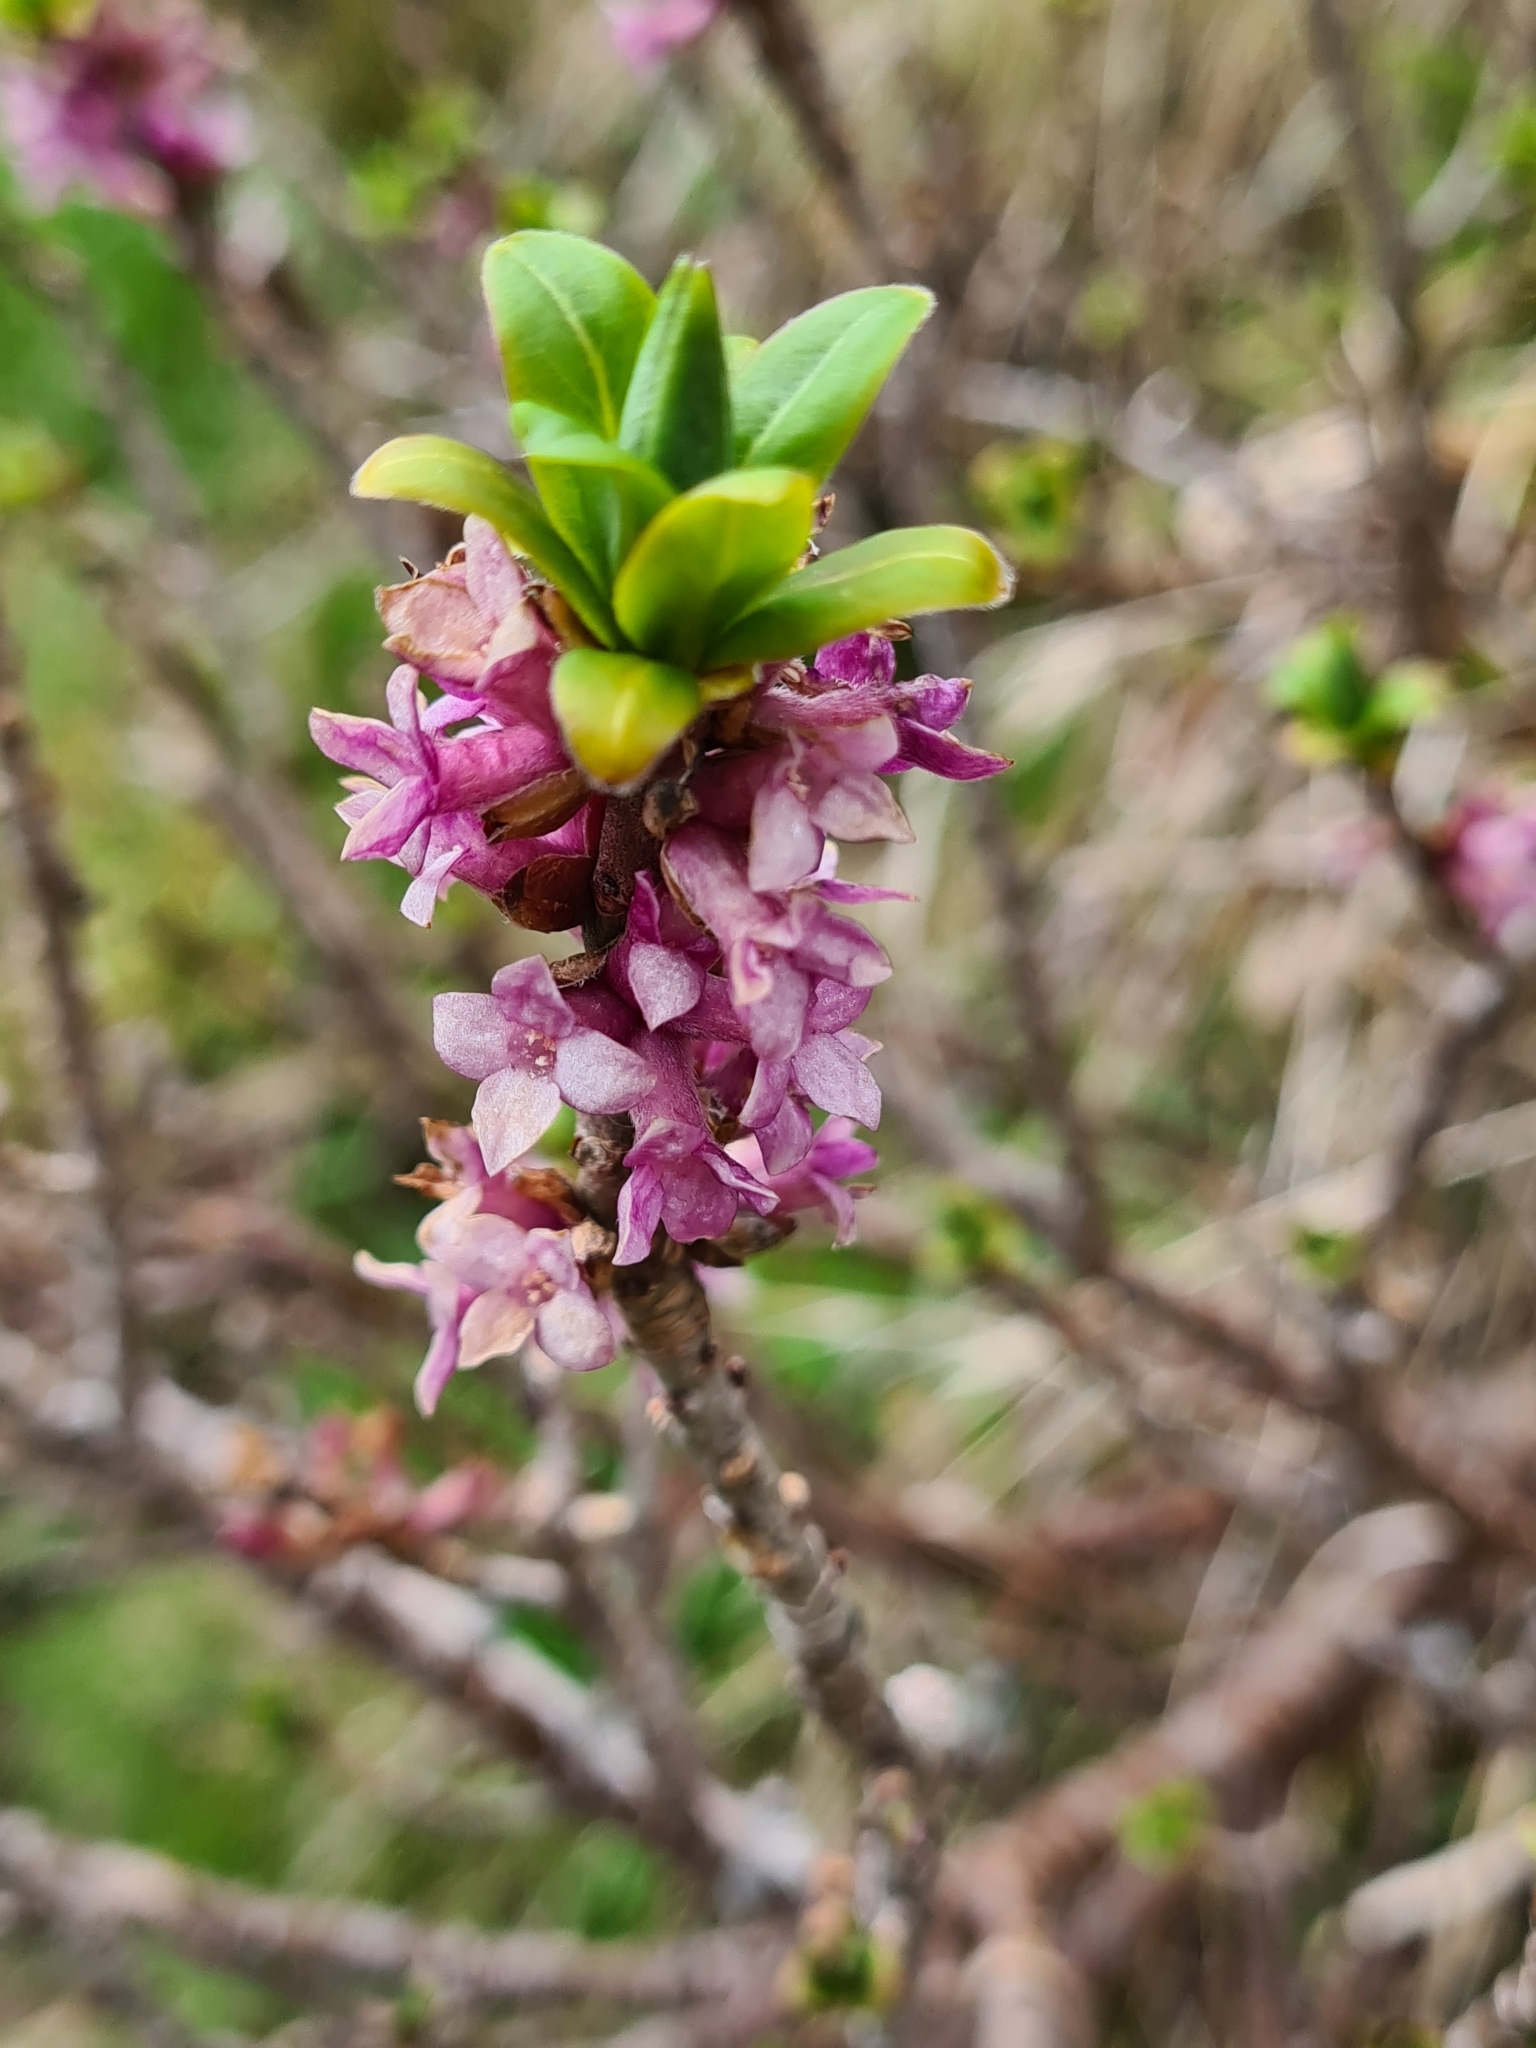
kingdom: Plantae
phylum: Tracheophyta
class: Magnoliopsida
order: Malvales
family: Thymelaeaceae
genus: Daphne
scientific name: Daphne mezereum
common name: Mezereon
